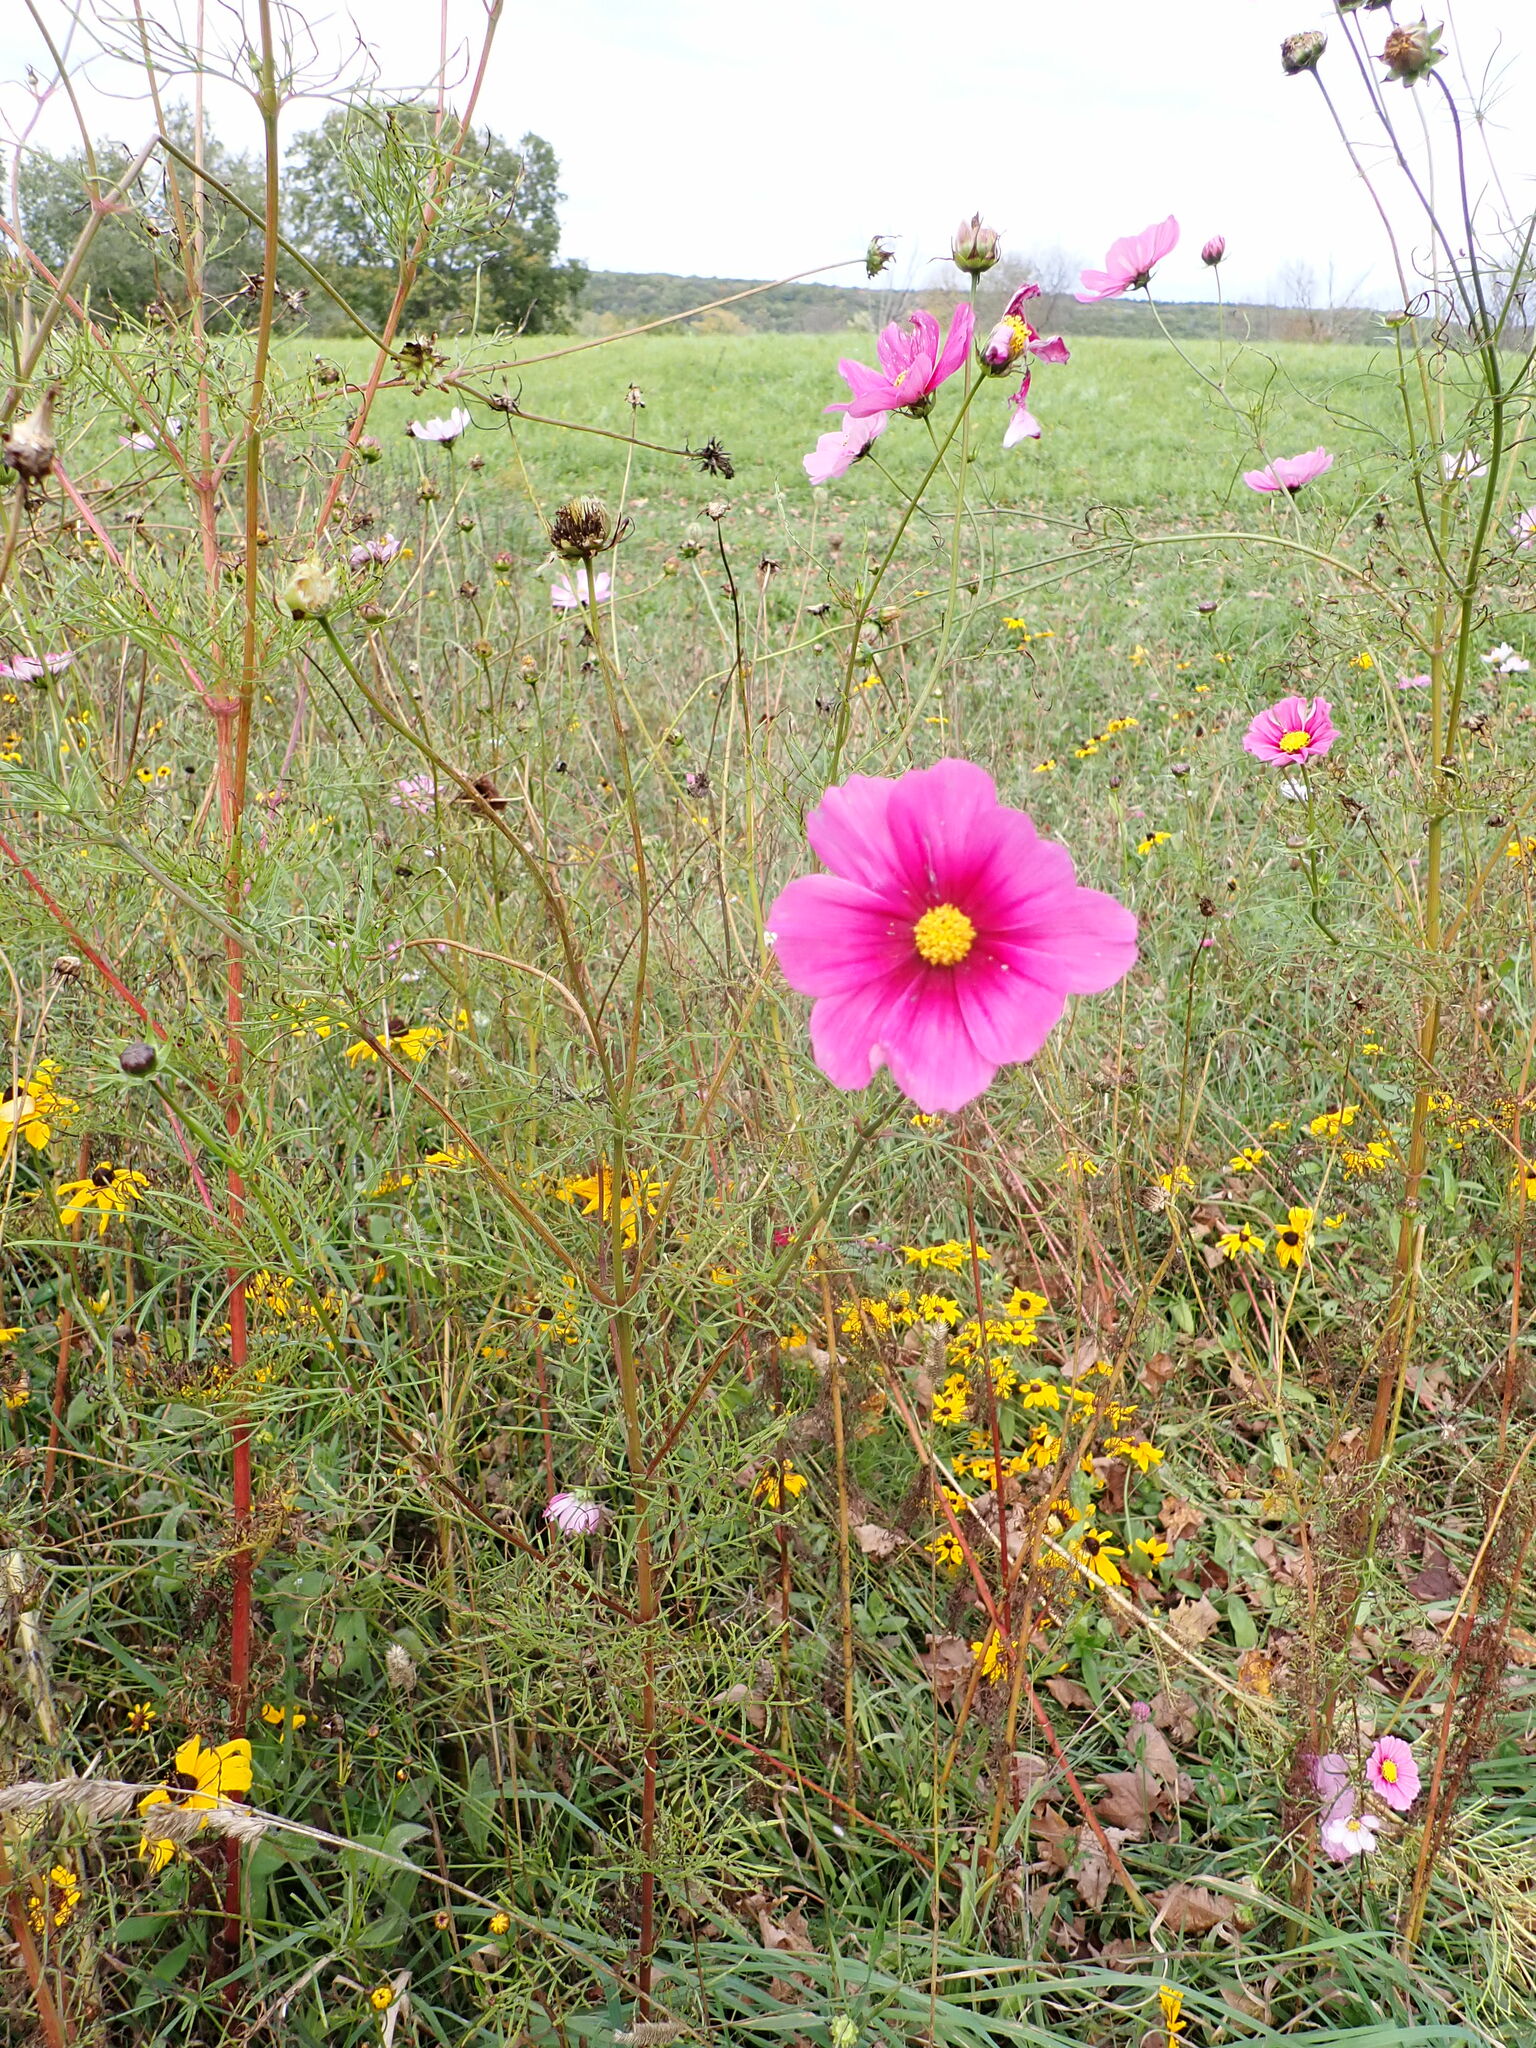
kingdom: Plantae
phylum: Tracheophyta
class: Magnoliopsida
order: Asterales
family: Asteraceae
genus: Cosmos
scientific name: Cosmos bipinnatus
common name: Garden cosmos
